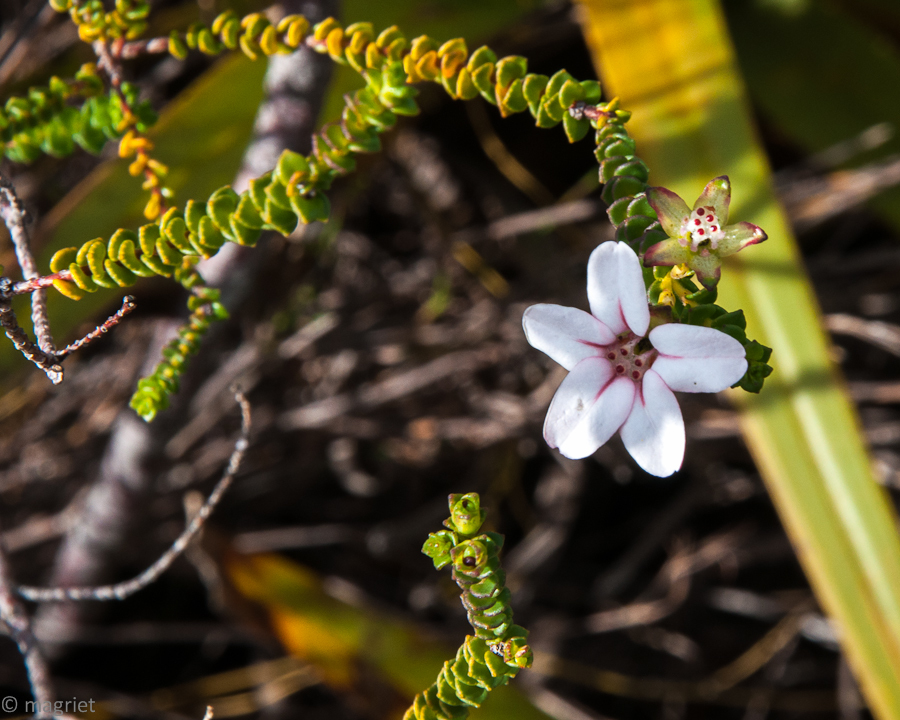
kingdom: Plantae
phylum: Tracheophyta
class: Magnoliopsida
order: Sapindales
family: Rutaceae
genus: Adenandra
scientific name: Adenandra brachyphylla
